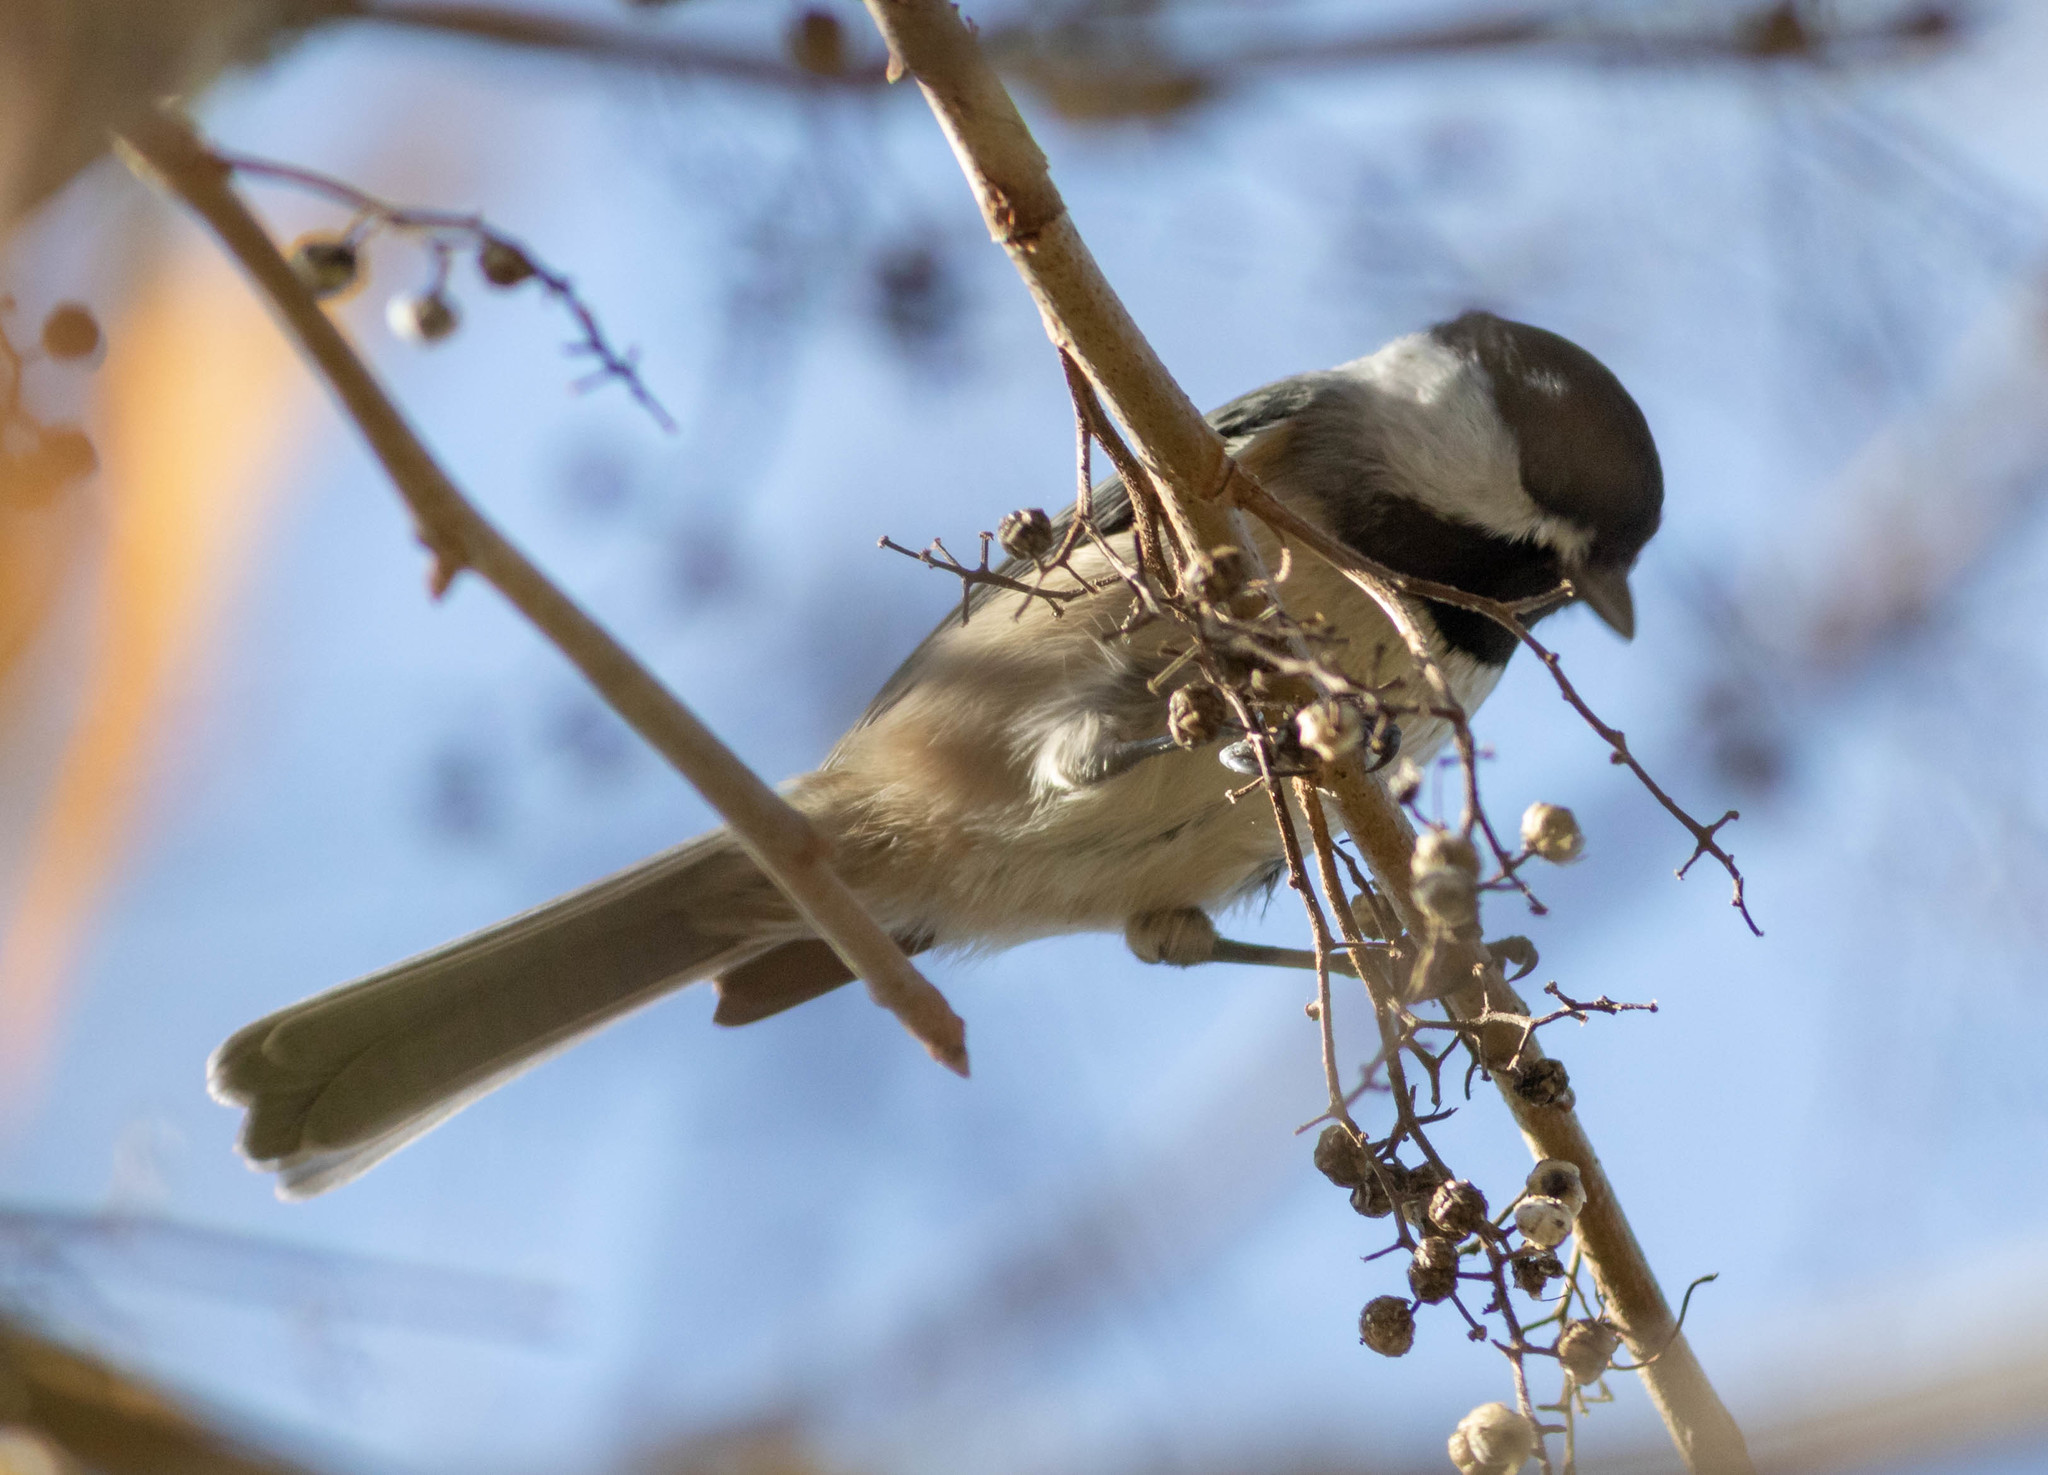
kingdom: Animalia
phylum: Chordata
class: Aves
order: Passeriformes
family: Paridae
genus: Poecile
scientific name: Poecile atricapillus
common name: Black-capped chickadee
